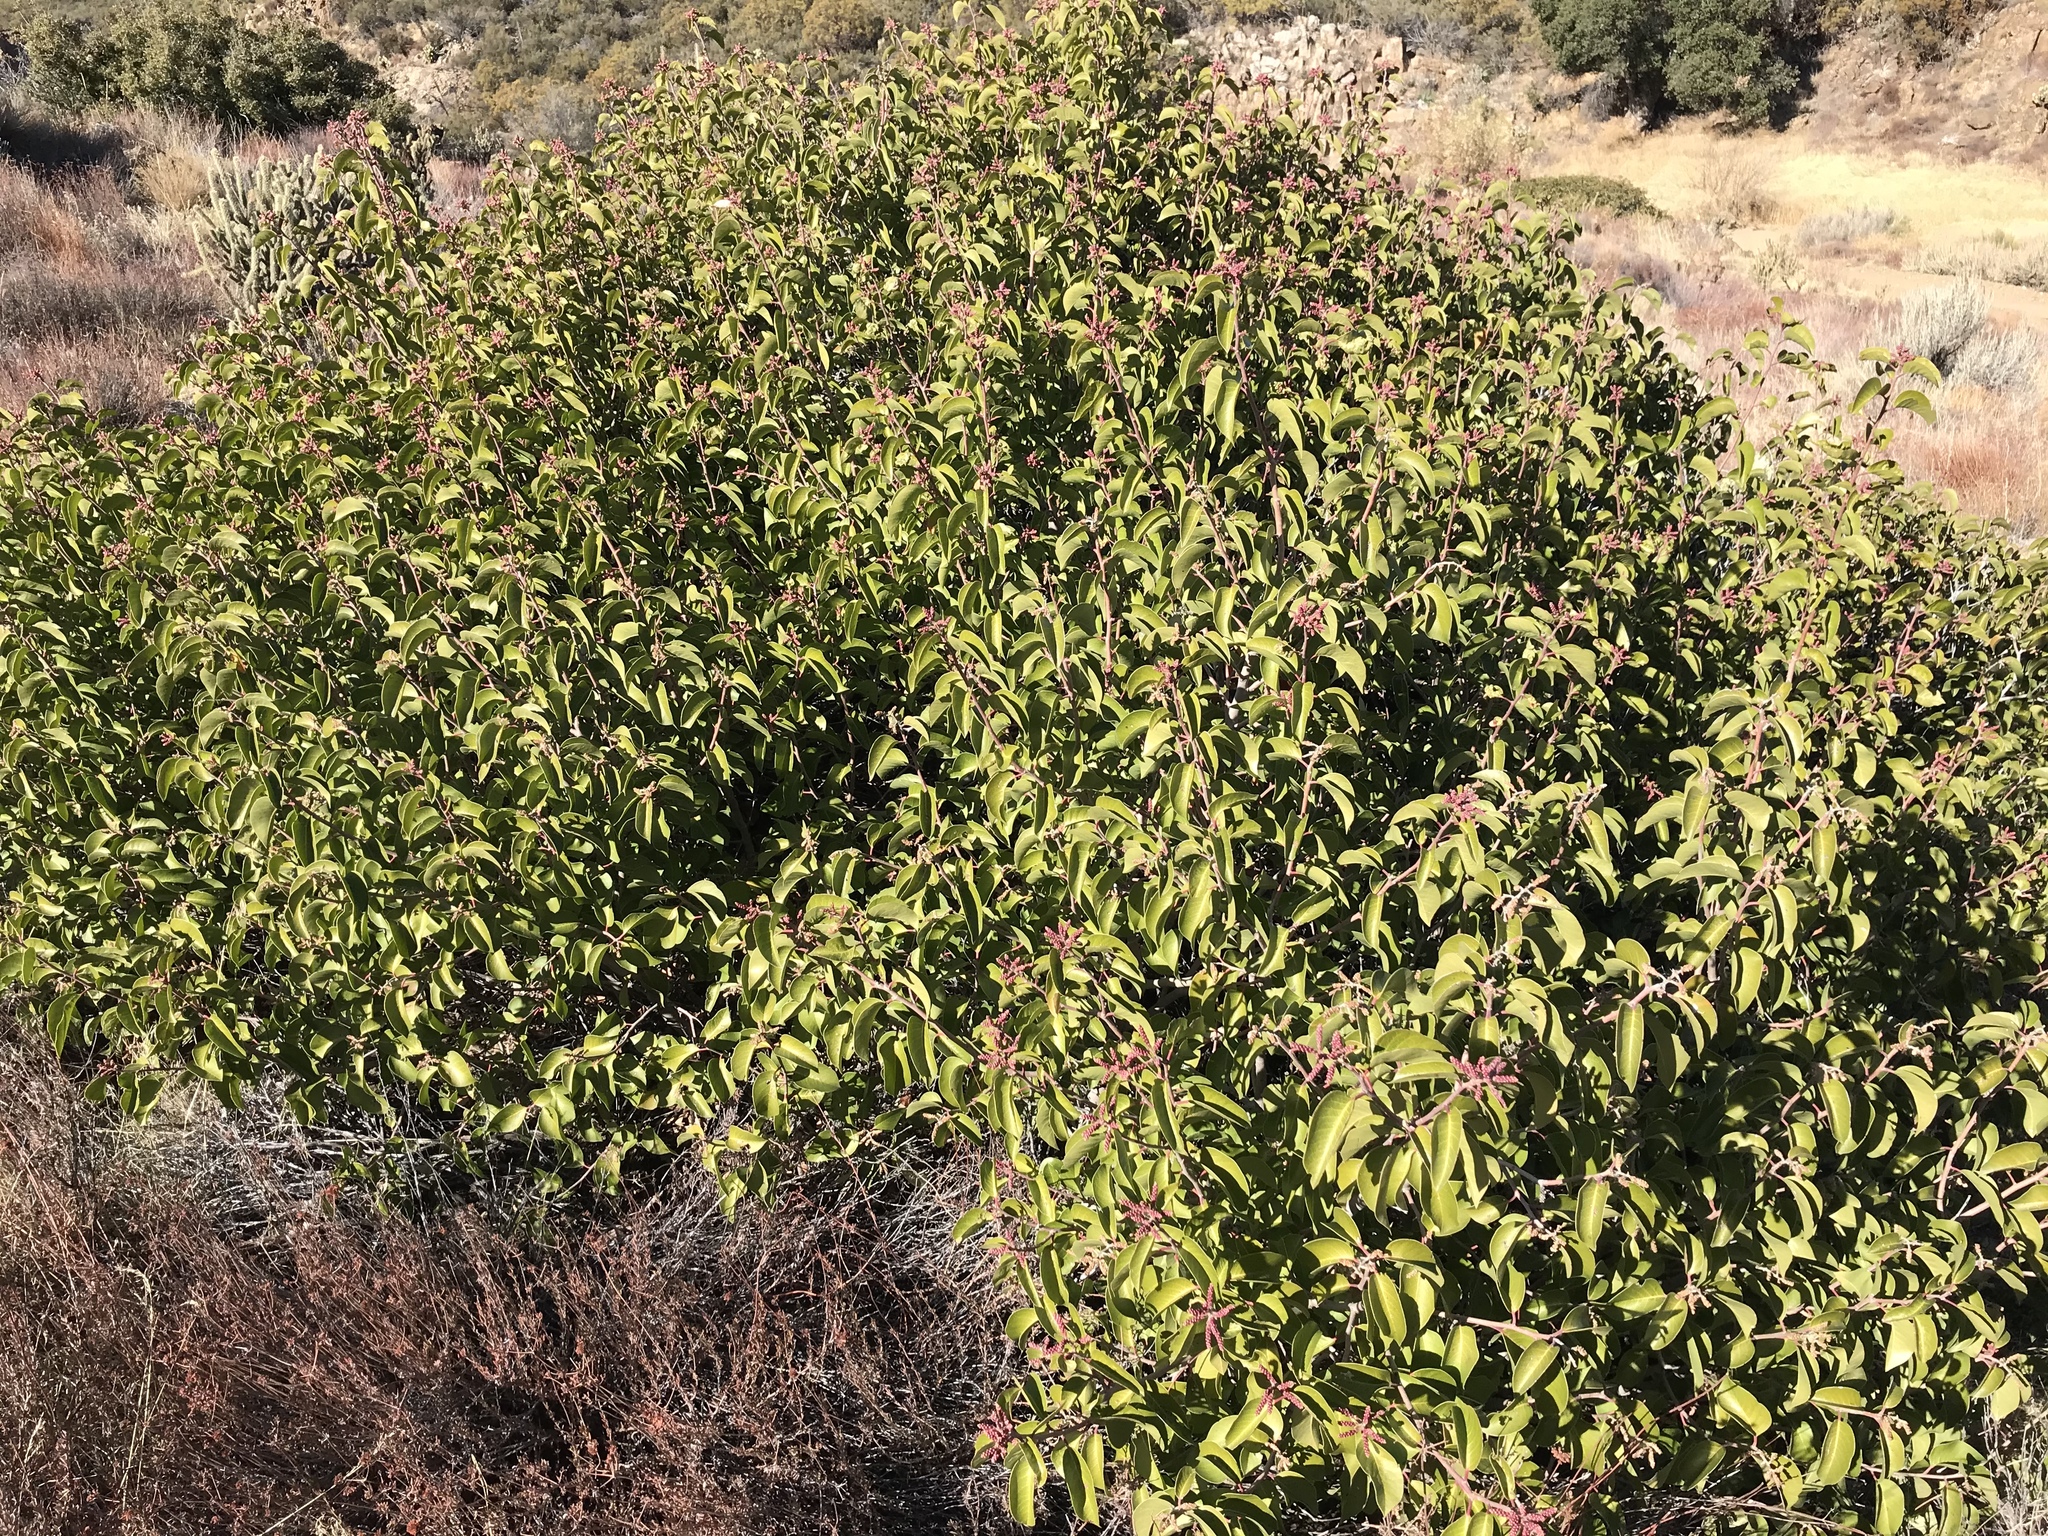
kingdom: Plantae
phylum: Tracheophyta
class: Magnoliopsida
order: Sapindales
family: Anacardiaceae
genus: Rhus
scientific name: Rhus ovata
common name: Sugar sumac
